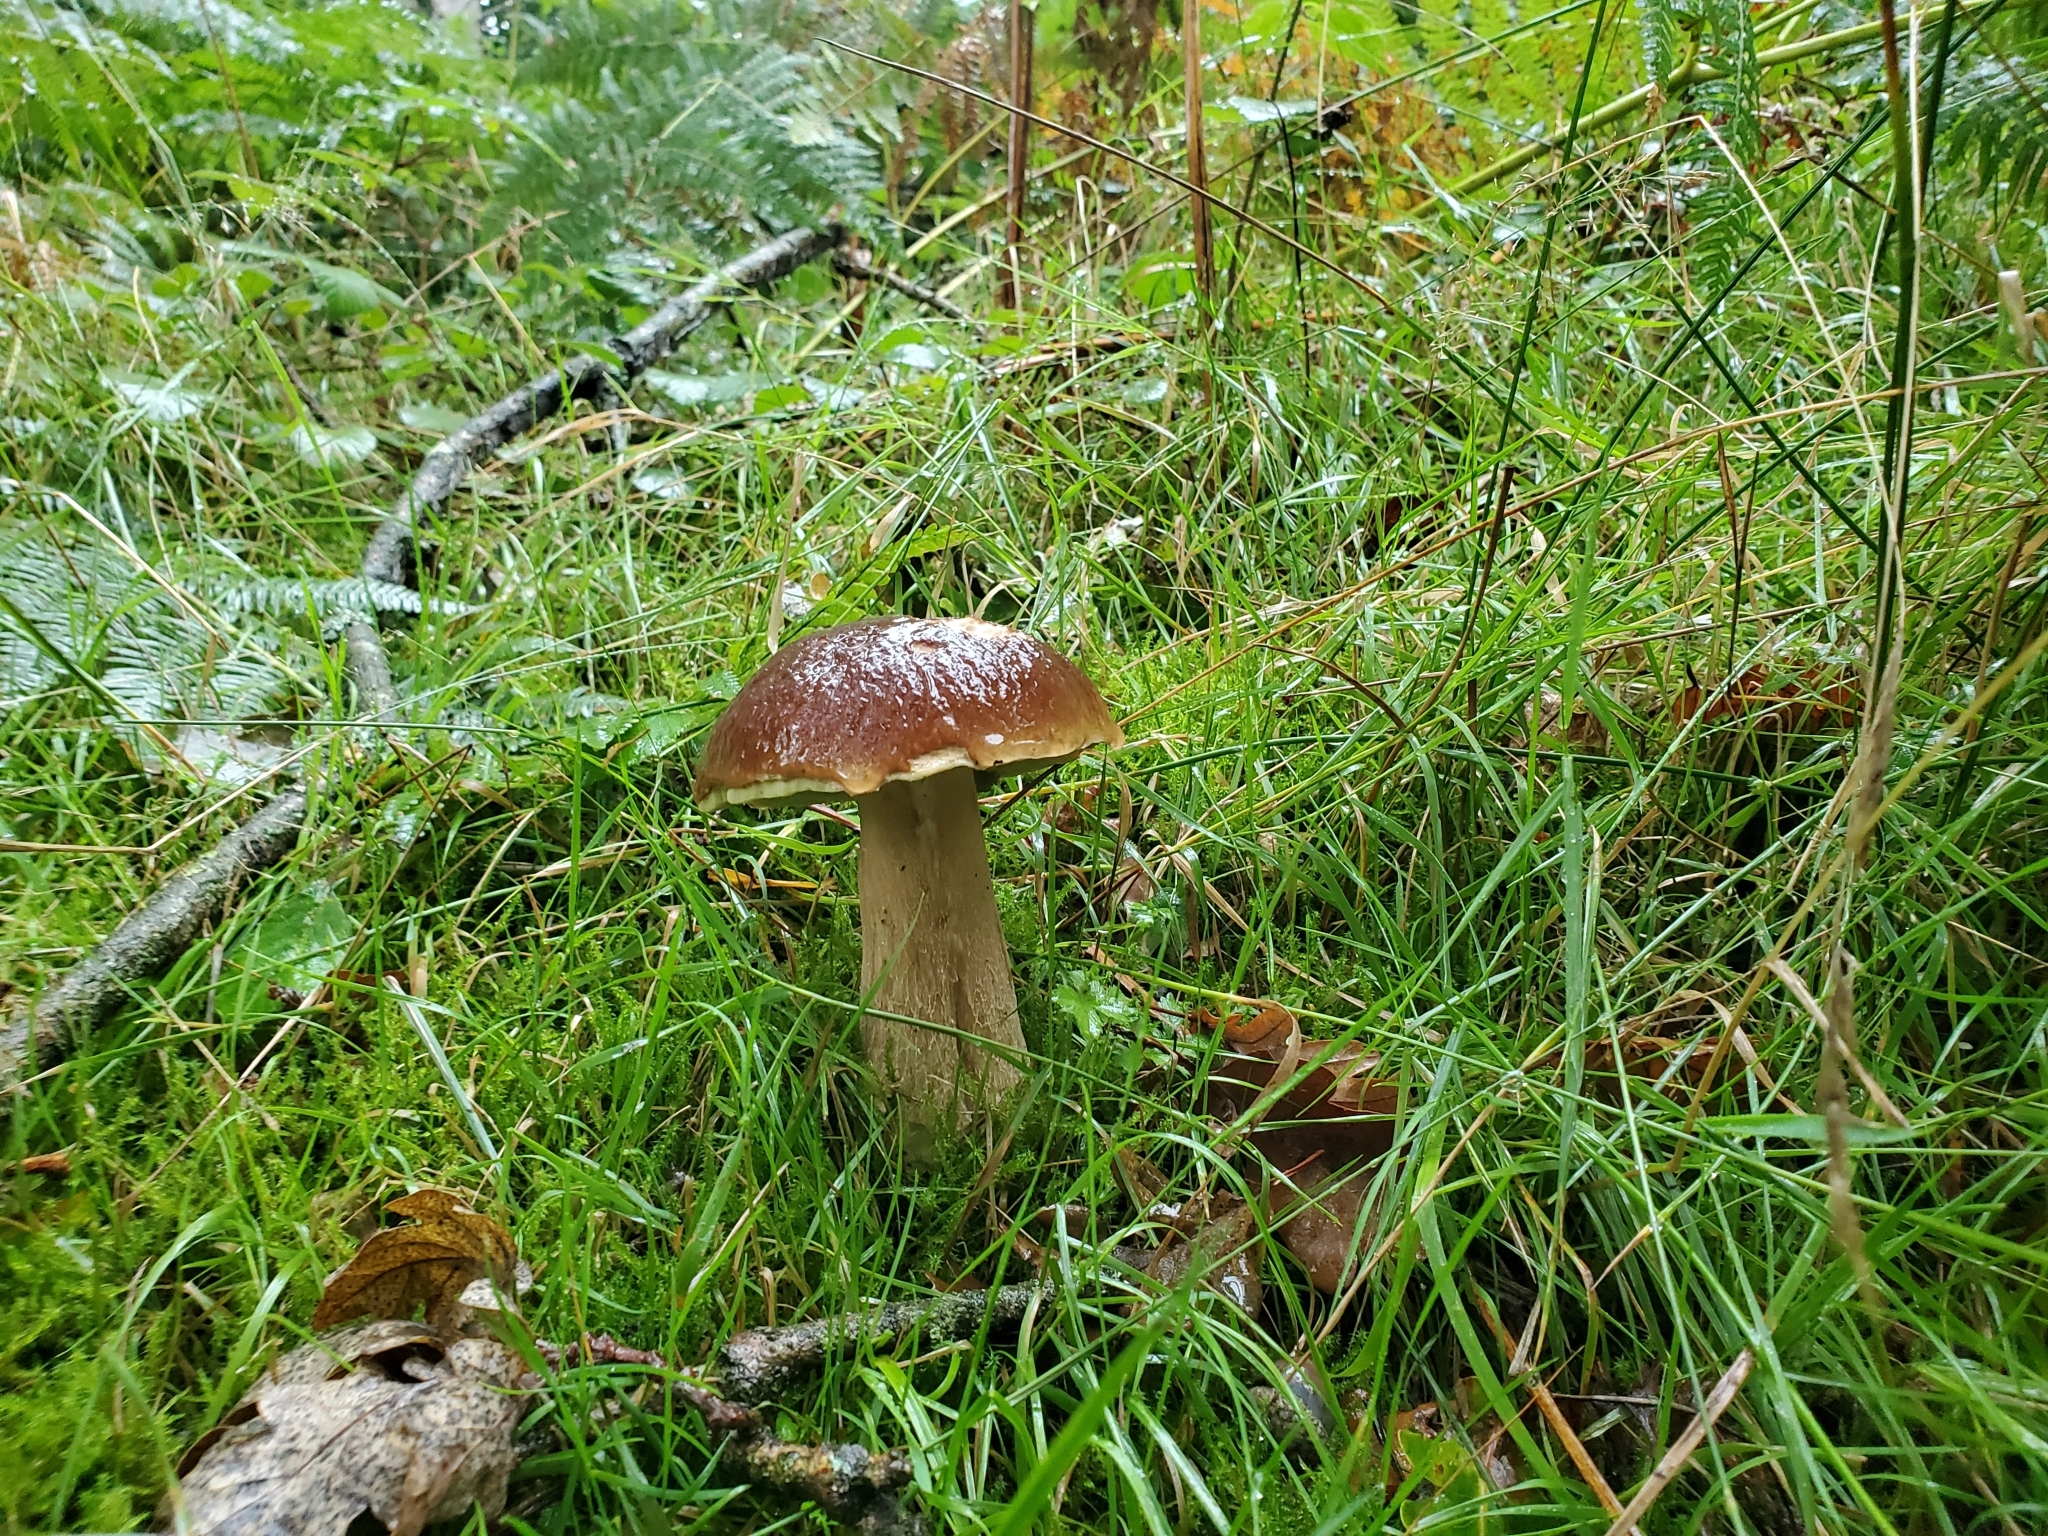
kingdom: Fungi
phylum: Basidiomycota
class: Agaricomycetes
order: Boletales
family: Boletaceae
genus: Boletus
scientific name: Boletus pinophilus
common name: Pine bolete
